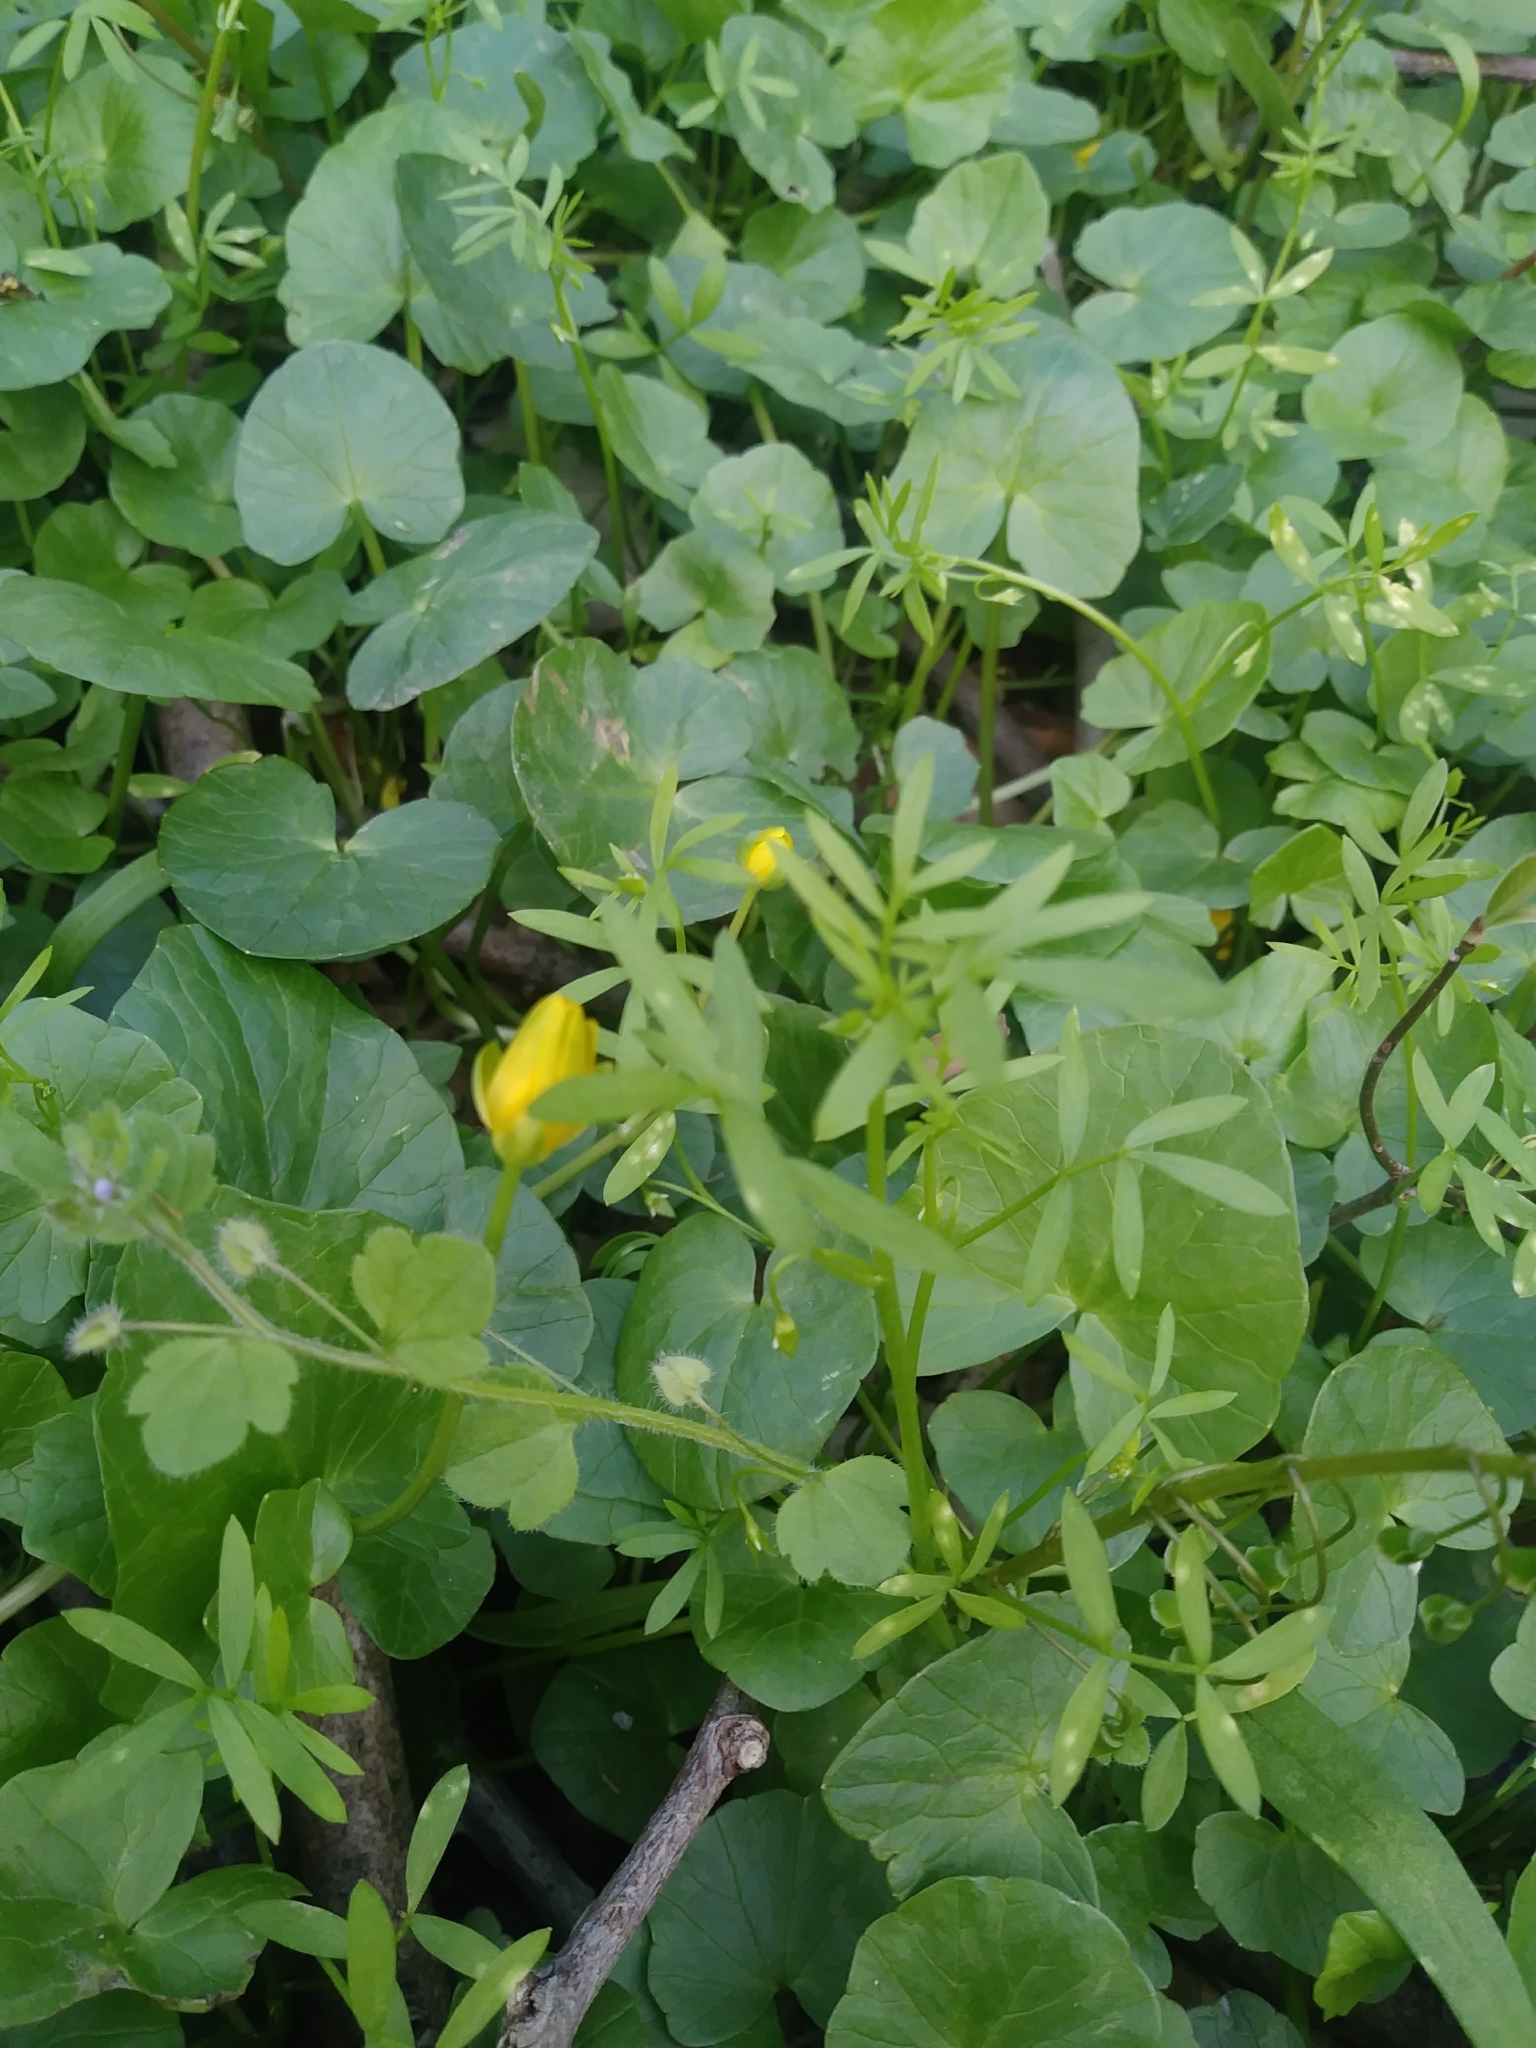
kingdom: Plantae
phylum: Tracheophyta
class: Magnoliopsida
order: Brassicales
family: Limnanthaceae
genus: Floerkea
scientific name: Floerkea proserpinacoides
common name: False mermaid
